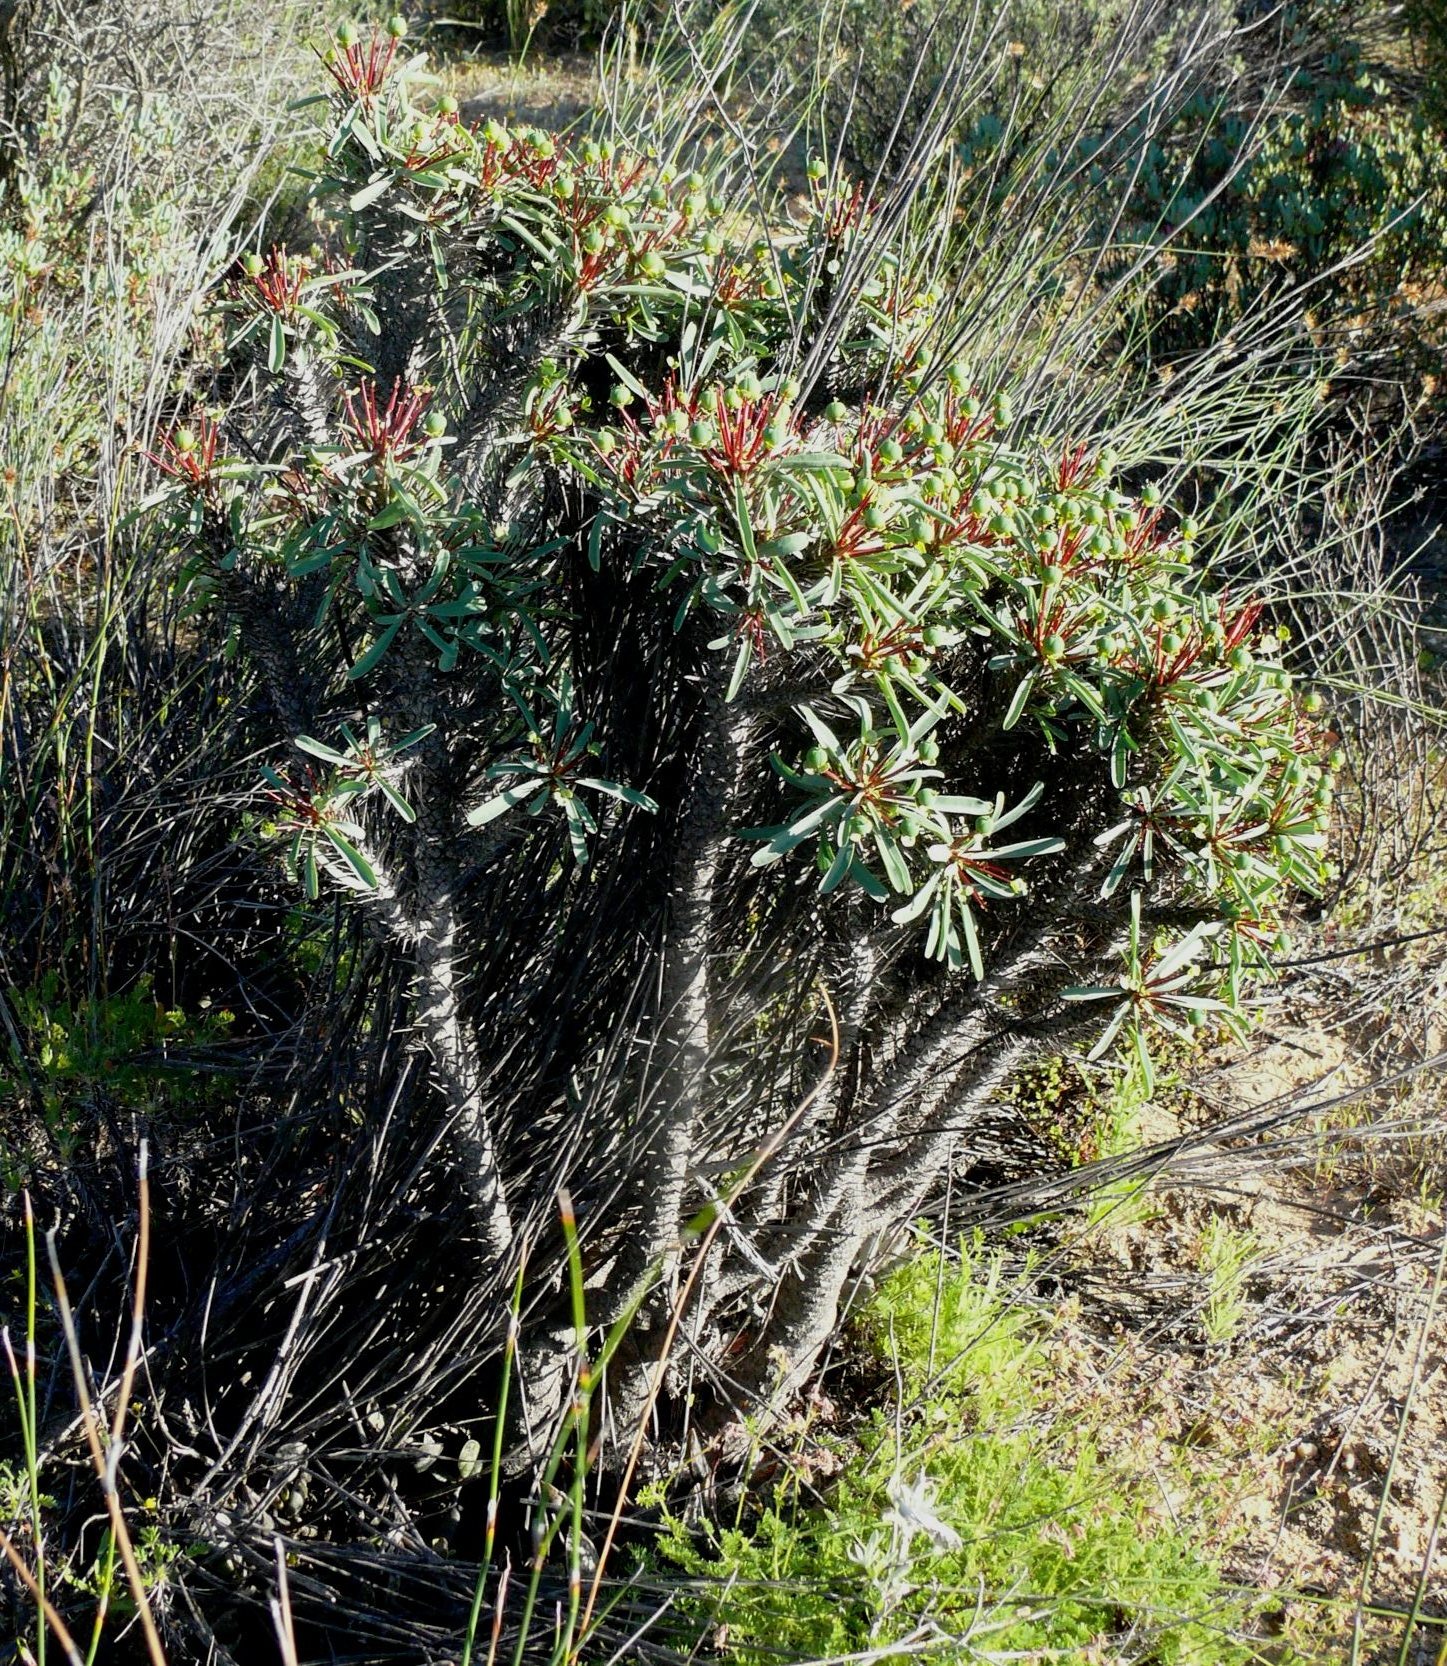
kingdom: Plantae
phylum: Tracheophyta
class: Magnoliopsida
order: Malpighiales
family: Euphorbiaceae
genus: Euphorbia
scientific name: Euphorbia loricata
